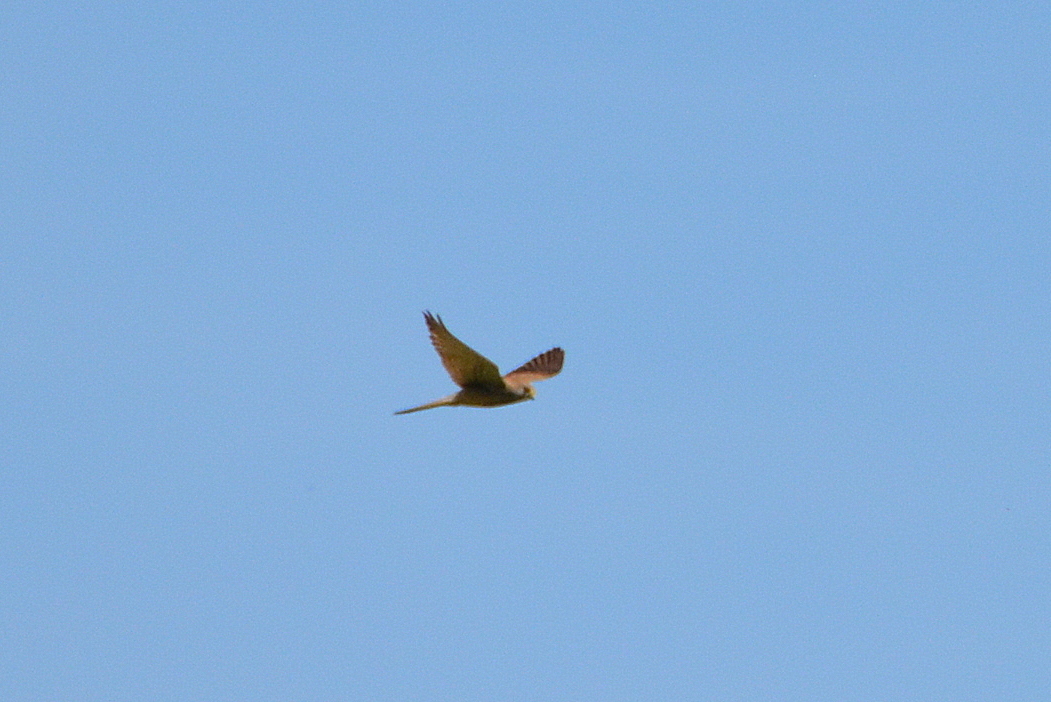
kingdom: Animalia
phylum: Chordata
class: Aves
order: Falconiformes
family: Falconidae
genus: Falco
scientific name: Falco tinnunculus
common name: Common kestrel
